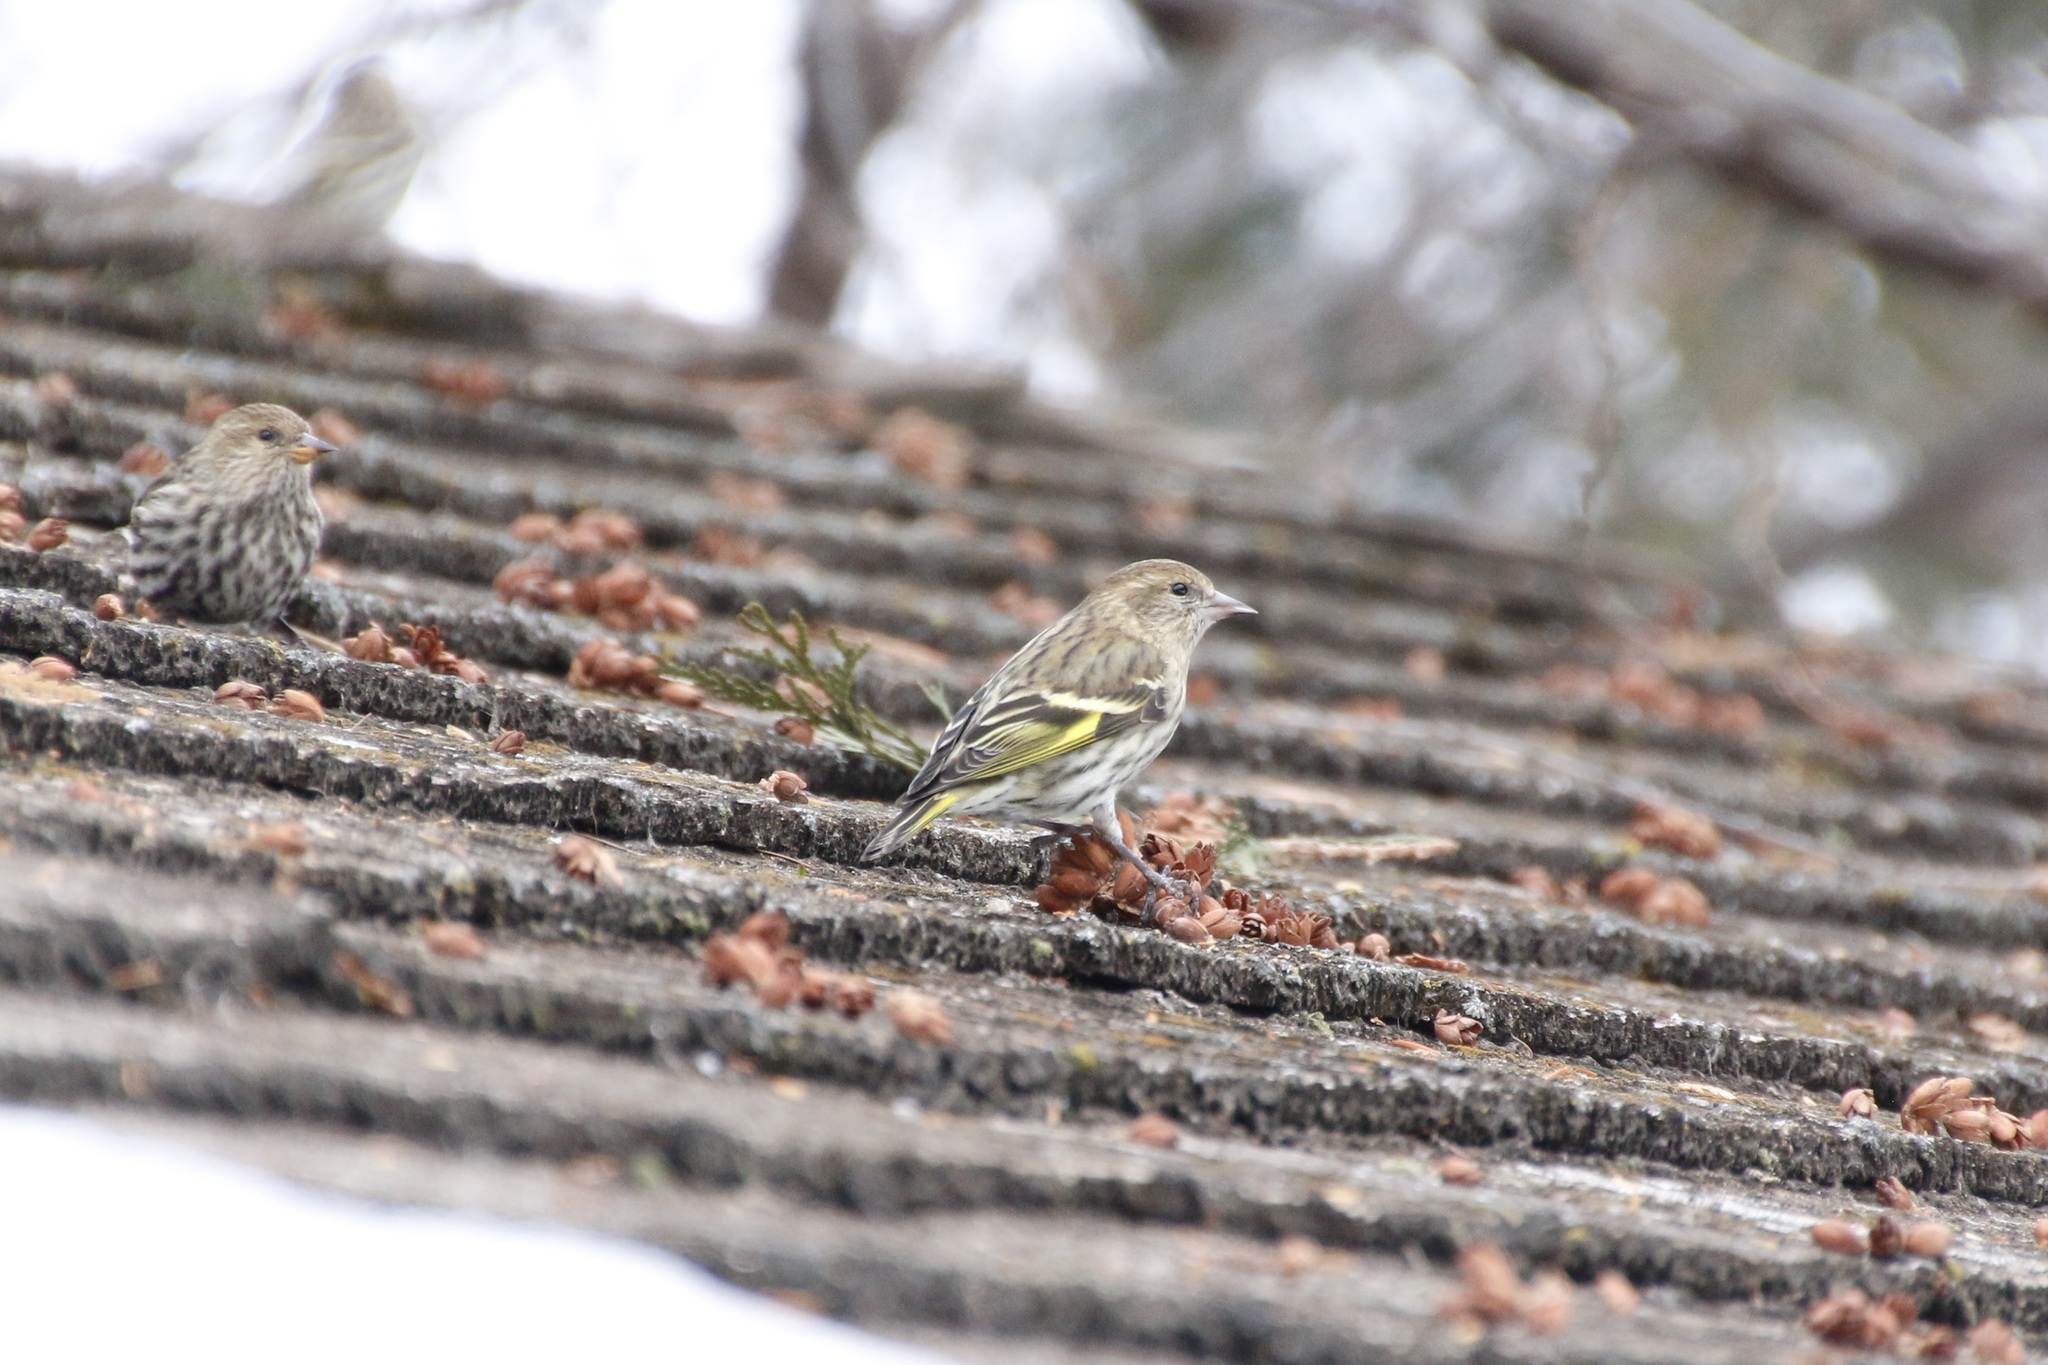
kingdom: Animalia
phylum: Chordata
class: Aves
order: Passeriformes
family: Fringillidae
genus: Spinus
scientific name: Spinus pinus
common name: Pine siskin
